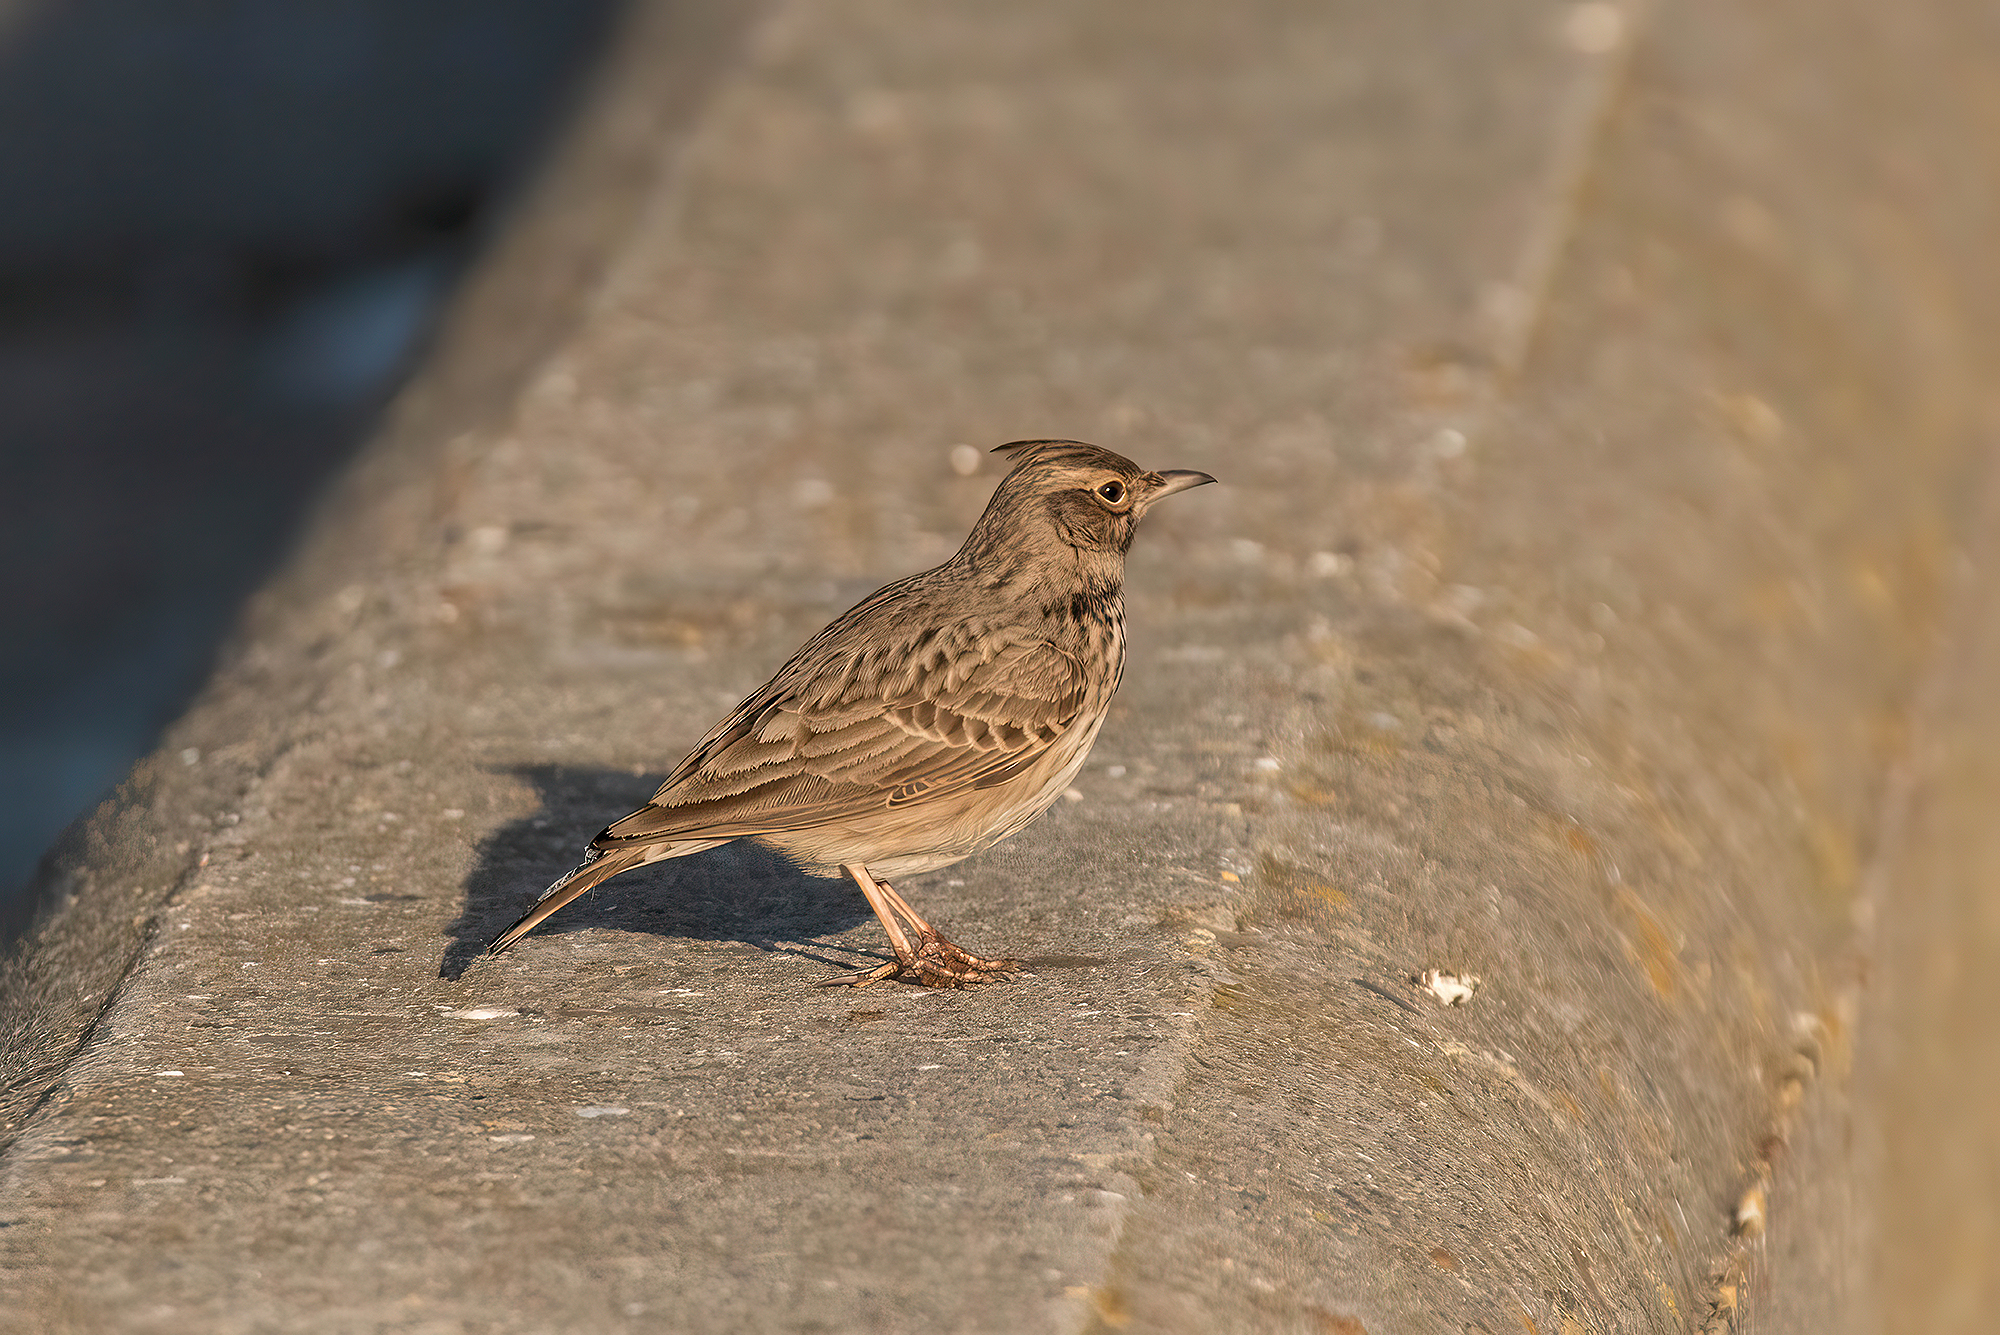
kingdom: Animalia
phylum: Chordata
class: Aves
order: Passeriformes
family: Alaudidae
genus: Galerida
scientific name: Galerida cristata
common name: Crested lark
